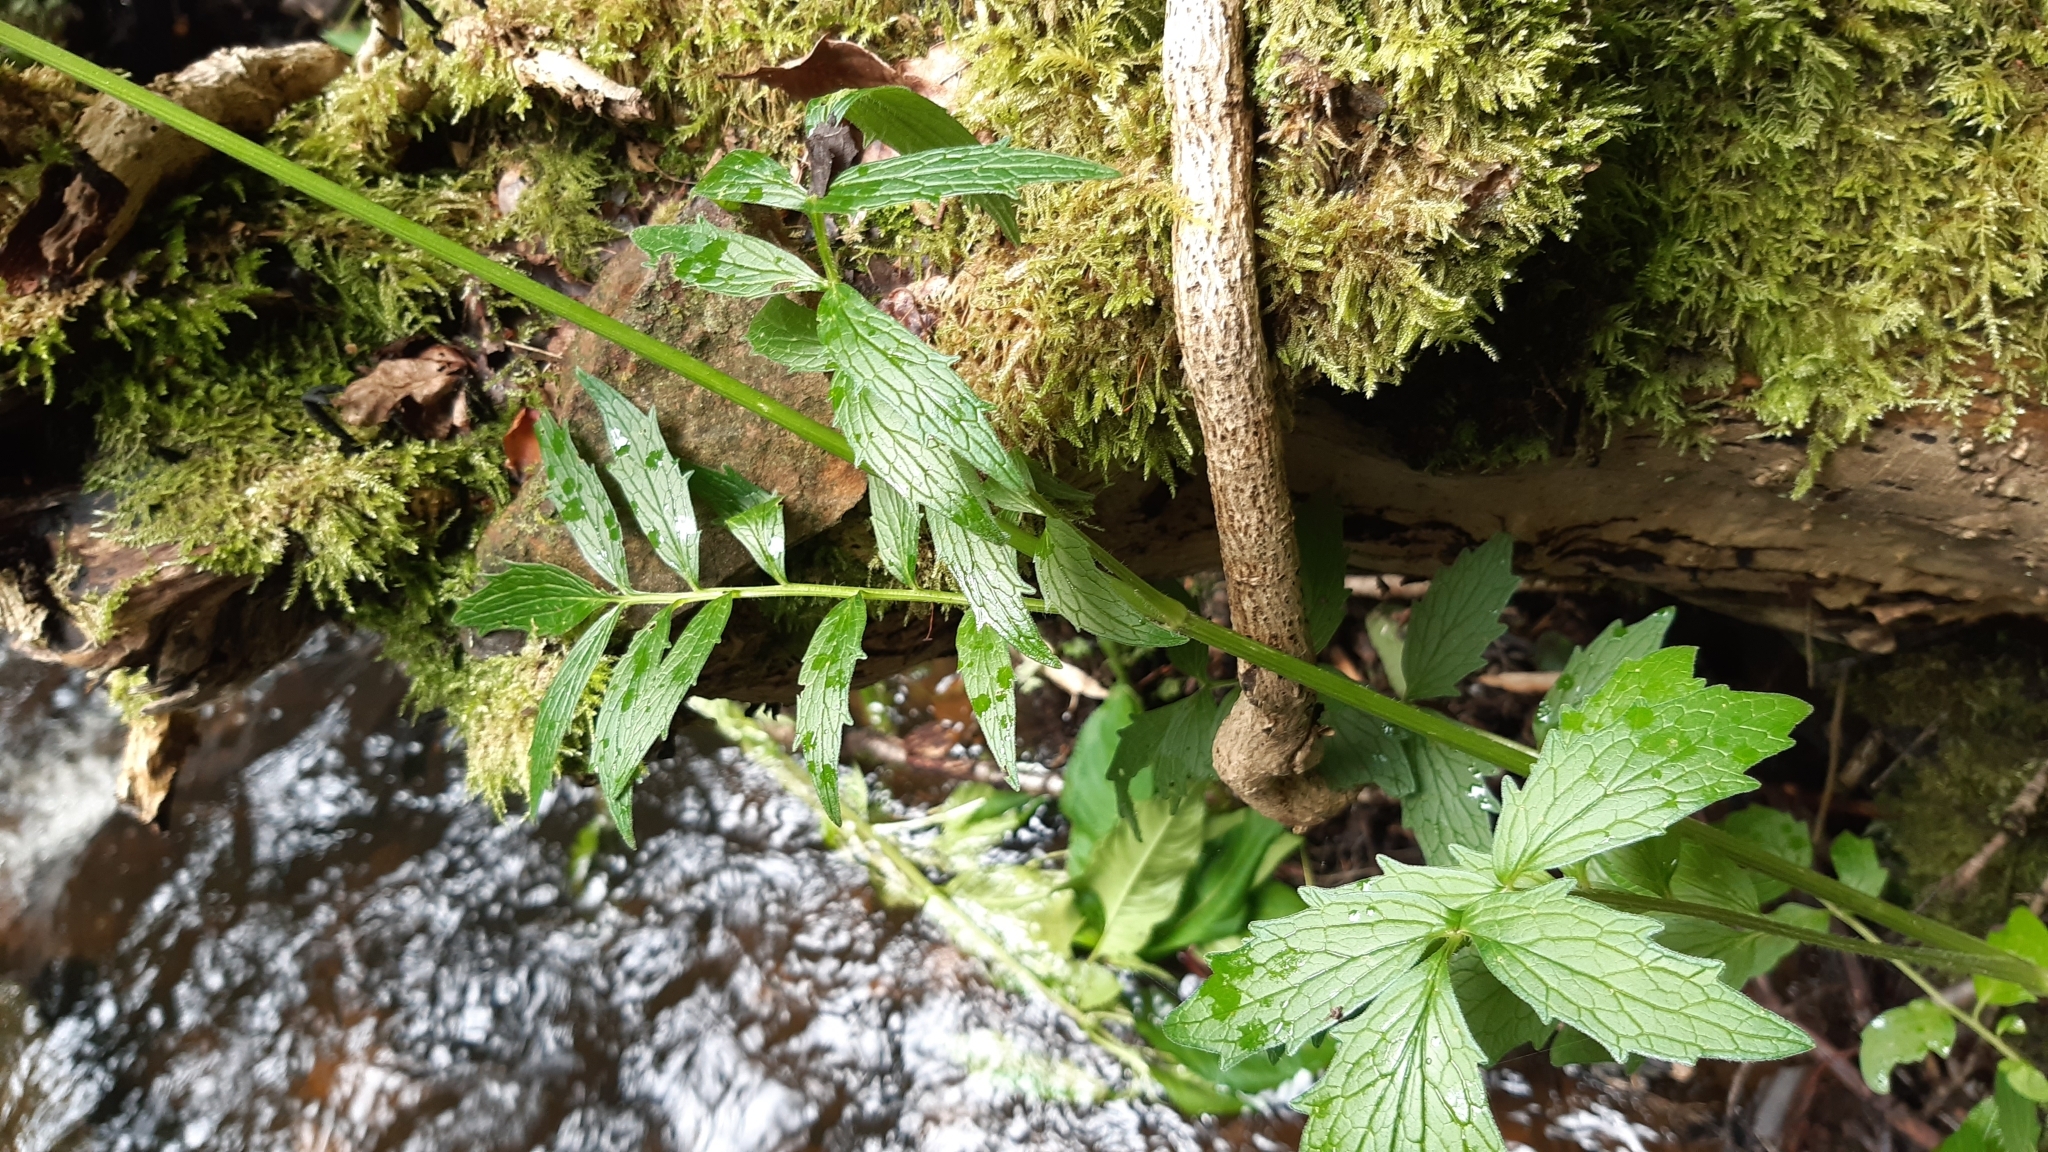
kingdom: Plantae
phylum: Tracheophyta
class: Magnoliopsida
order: Dipsacales
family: Caprifoliaceae
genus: Valeriana
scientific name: Valeriana officinalis
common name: Common valerian
